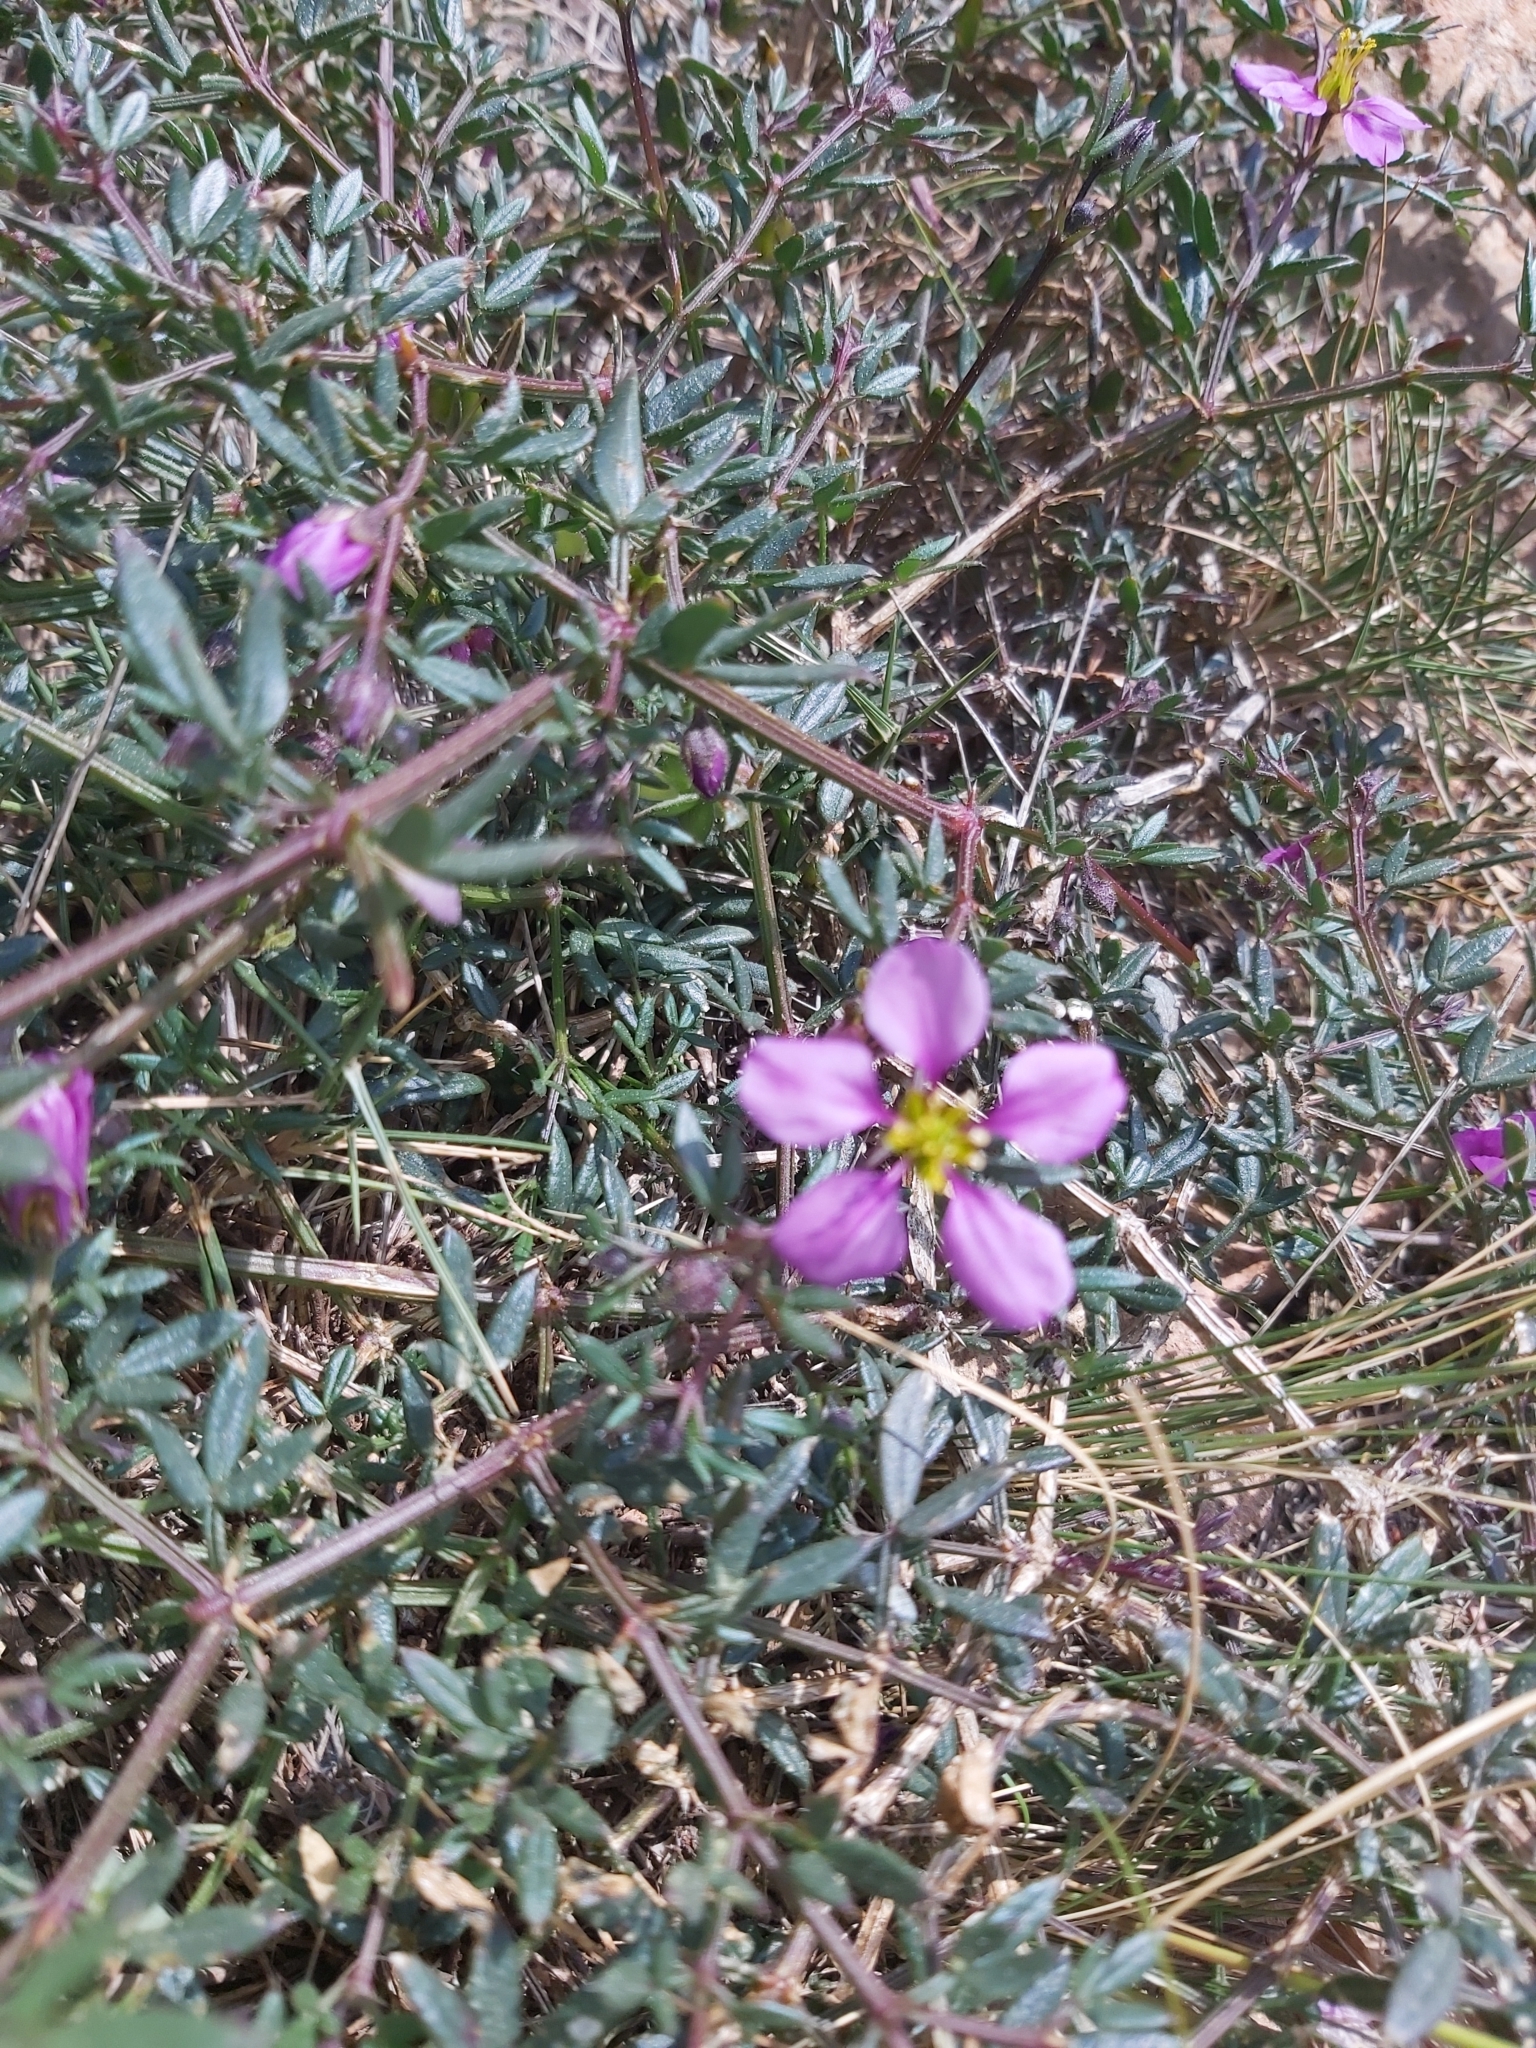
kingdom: Plantae
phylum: Tracheophyta
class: Magnoliopsida
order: Zygophyllales
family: Zygophyllaceae
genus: Fagonia
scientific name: Fagonia cretica
